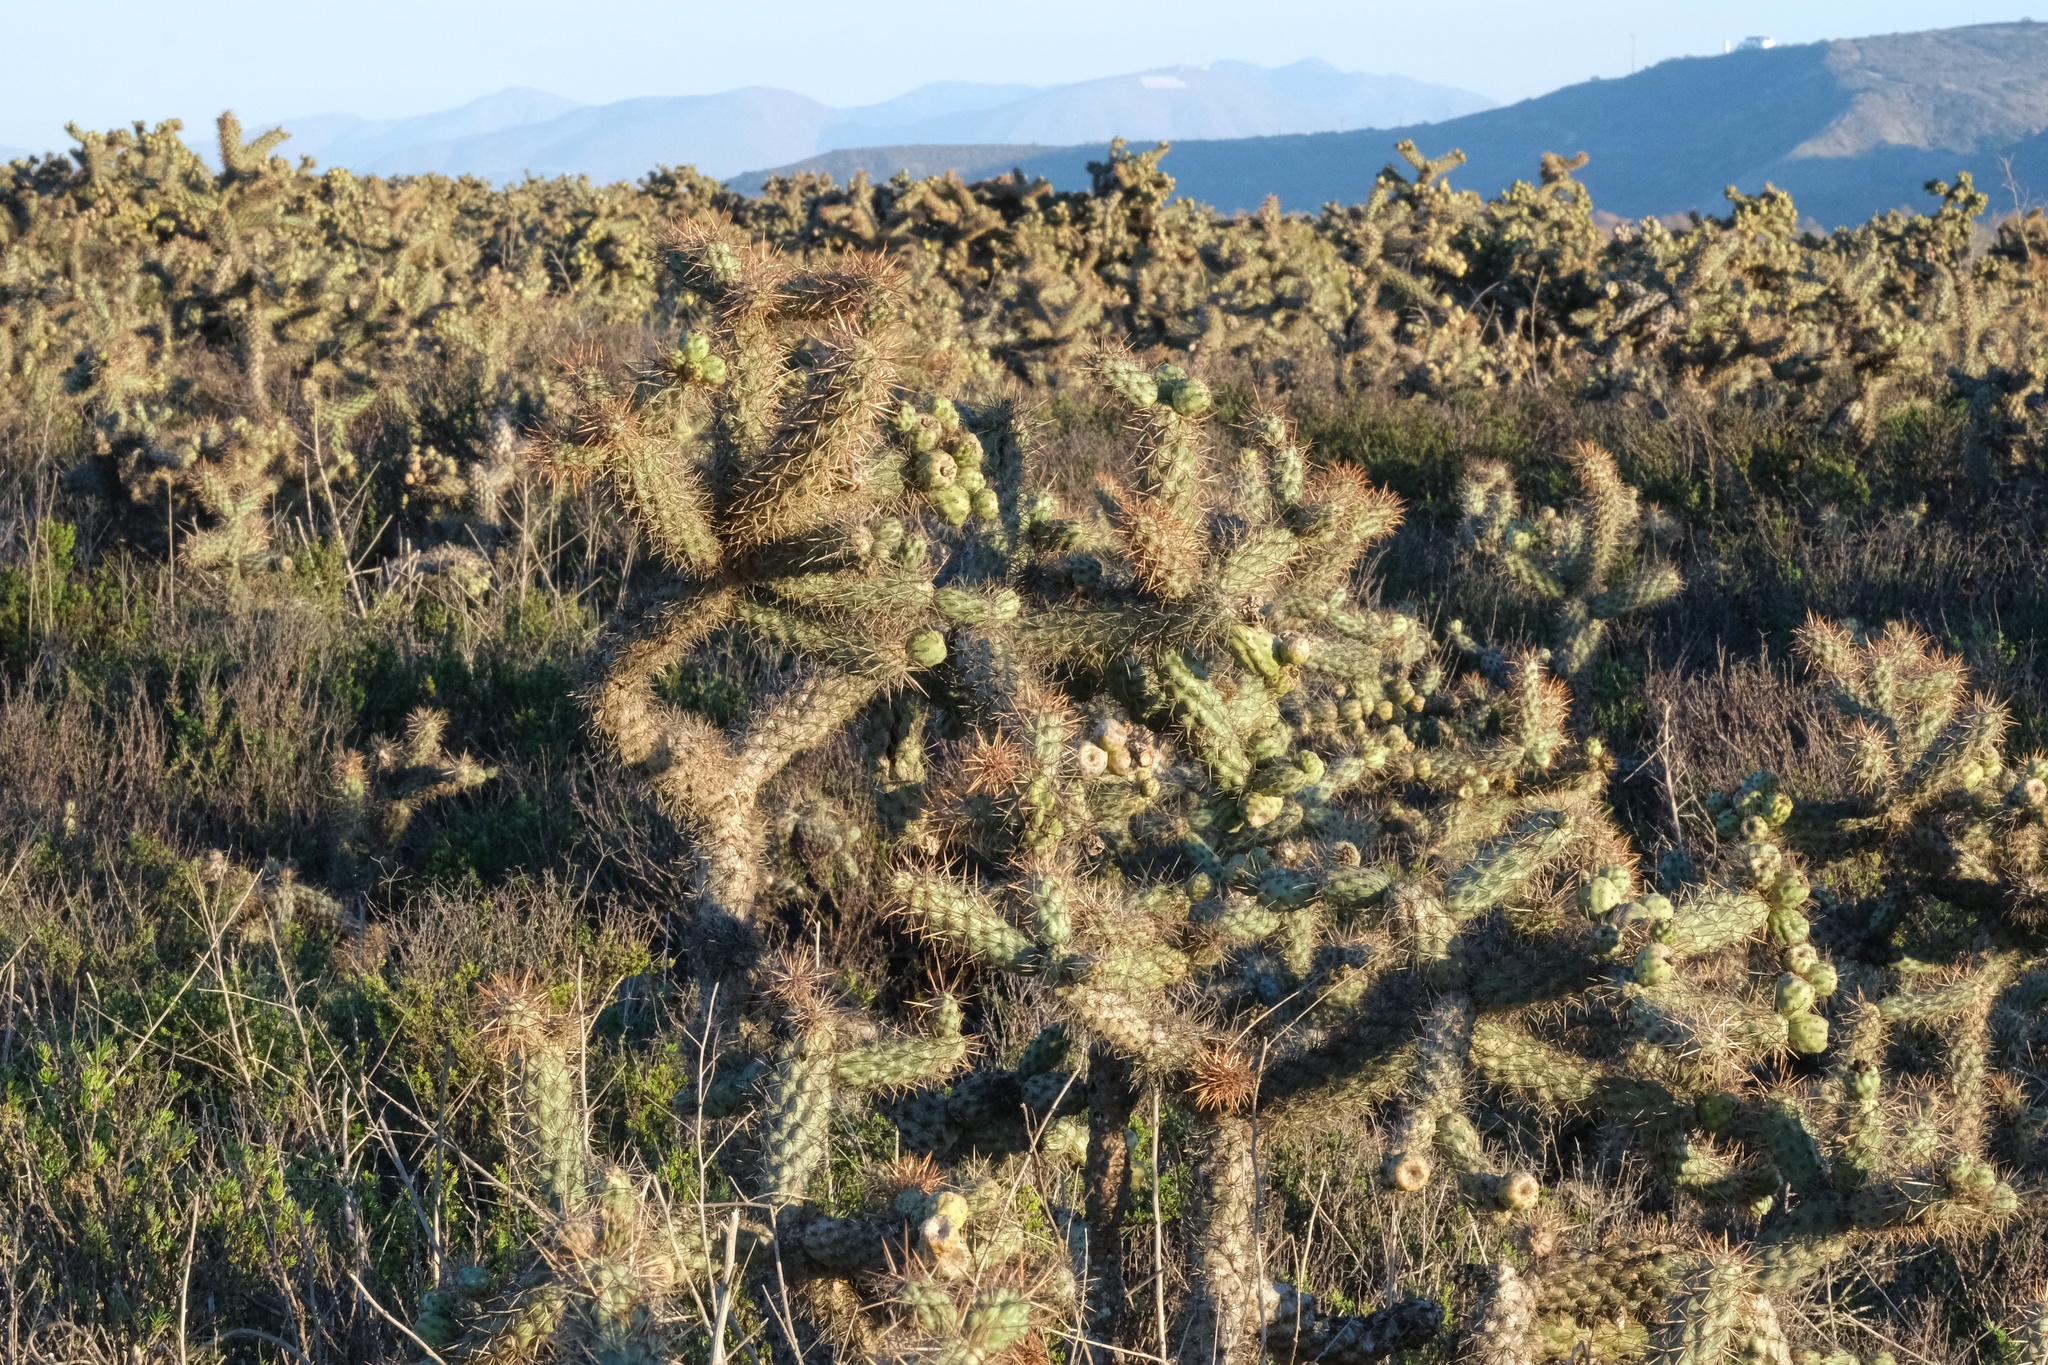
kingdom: Plantae
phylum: Tracheophyta
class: Magnoliopsida
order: Caryophyllales
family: Cactaceae
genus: Cylindropuntia
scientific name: Cylindropuntia prolifera
